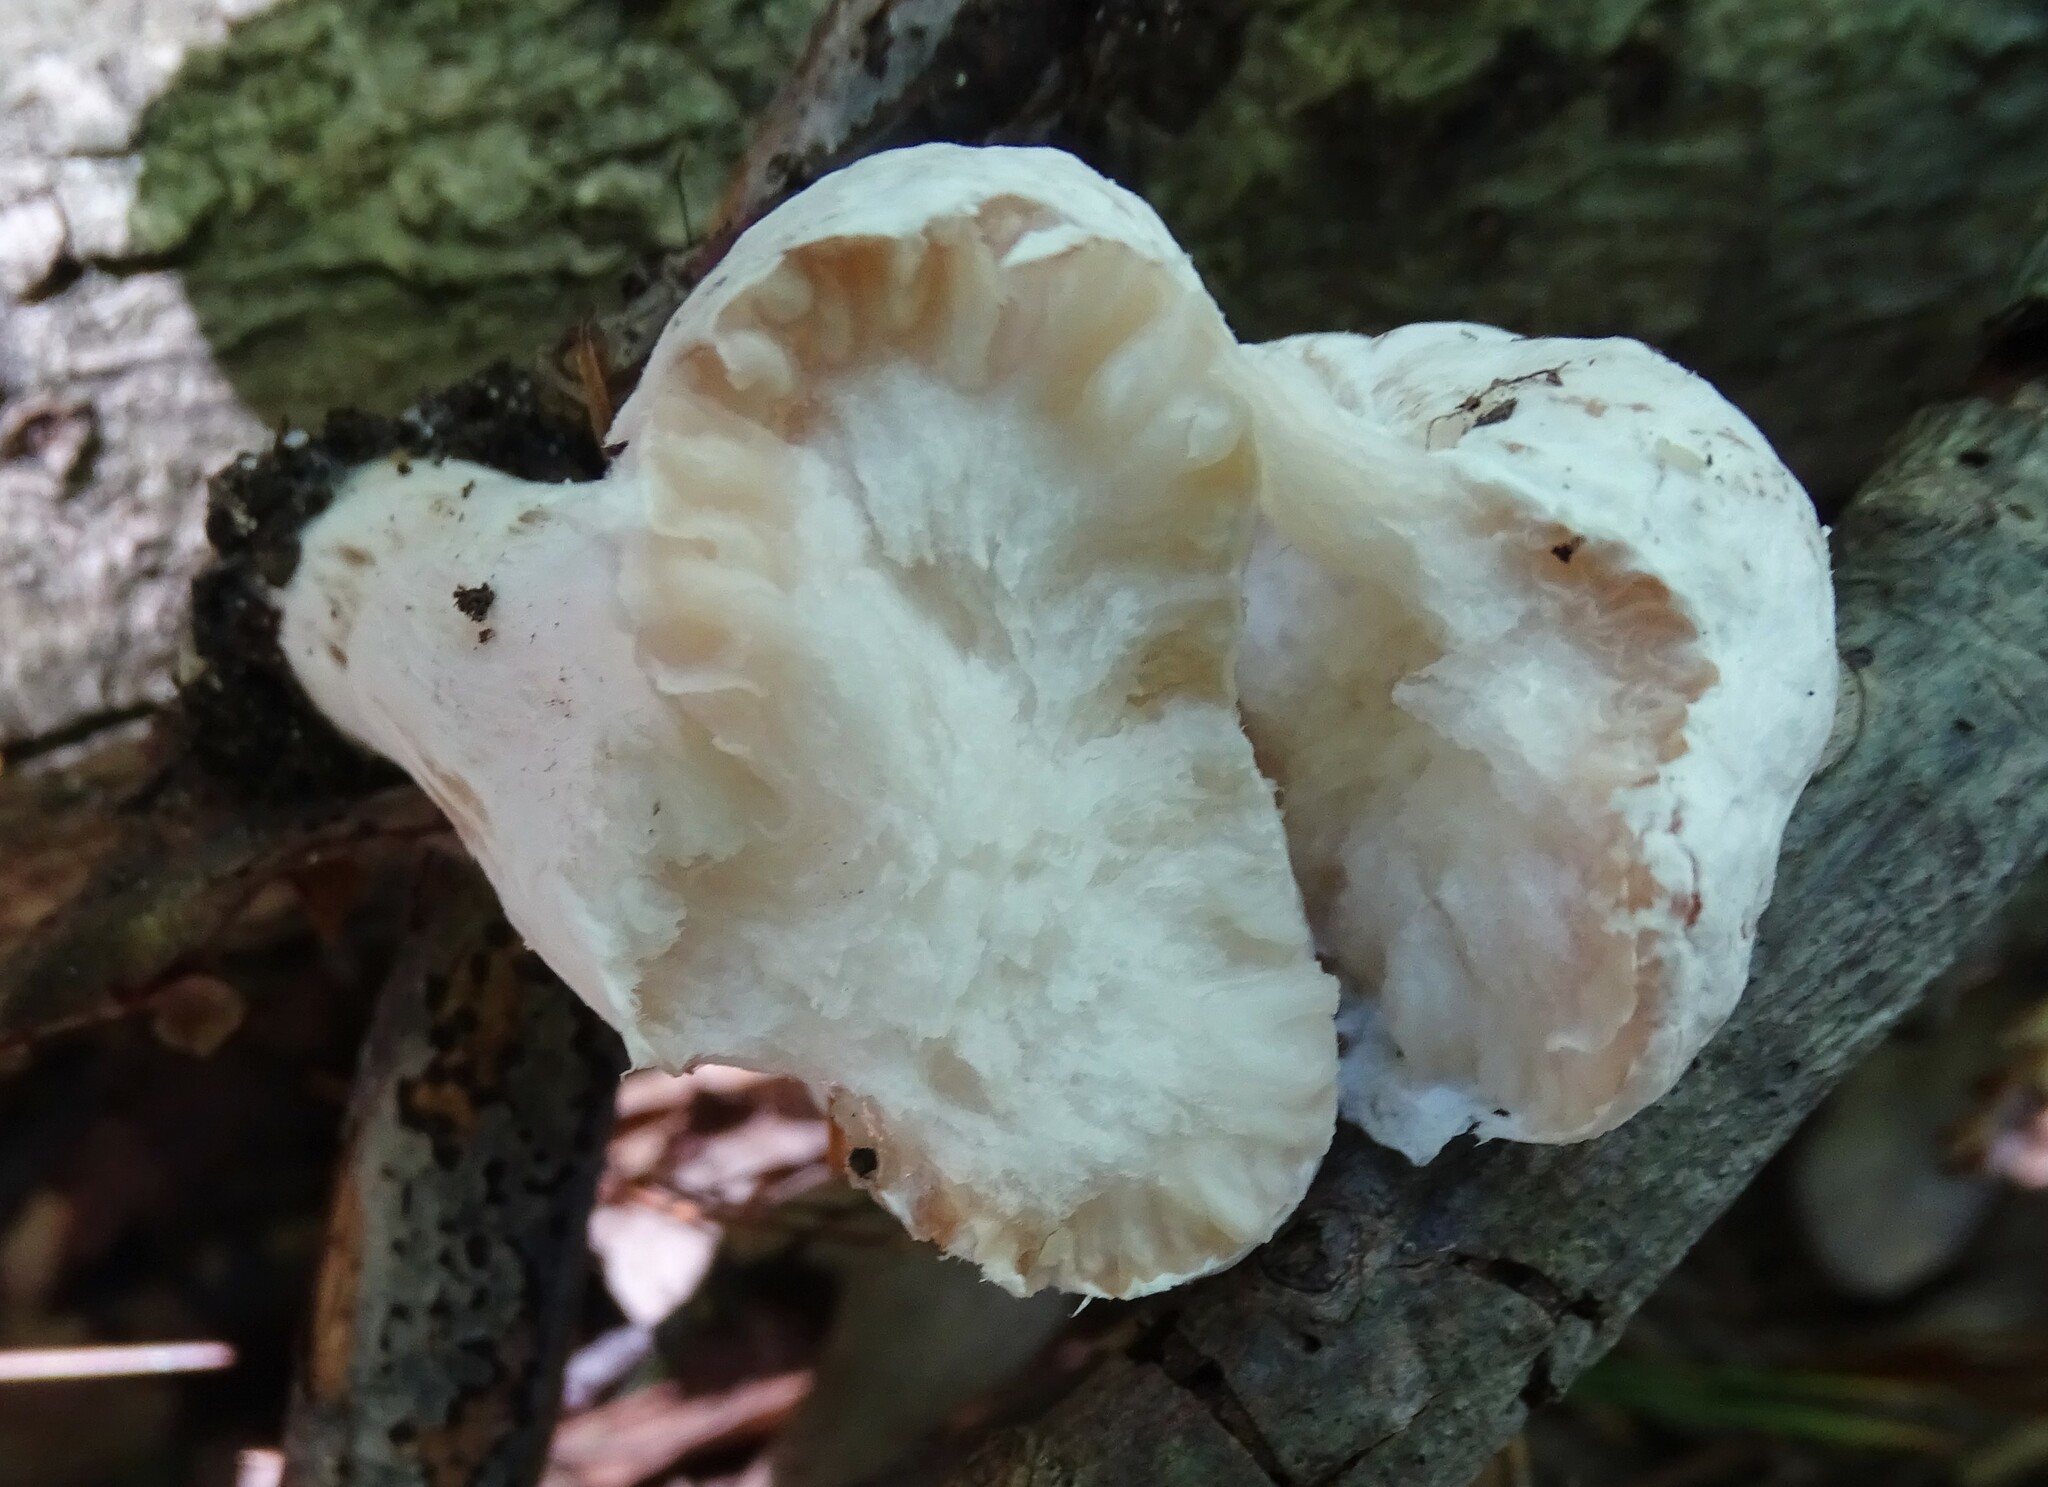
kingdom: Fungi
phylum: Basidiomycota
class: Agaricomycetes
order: Agaricales
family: Entolomataceae
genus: Entoloma
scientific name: Entoloma abortivum
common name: Aborted entoloma
